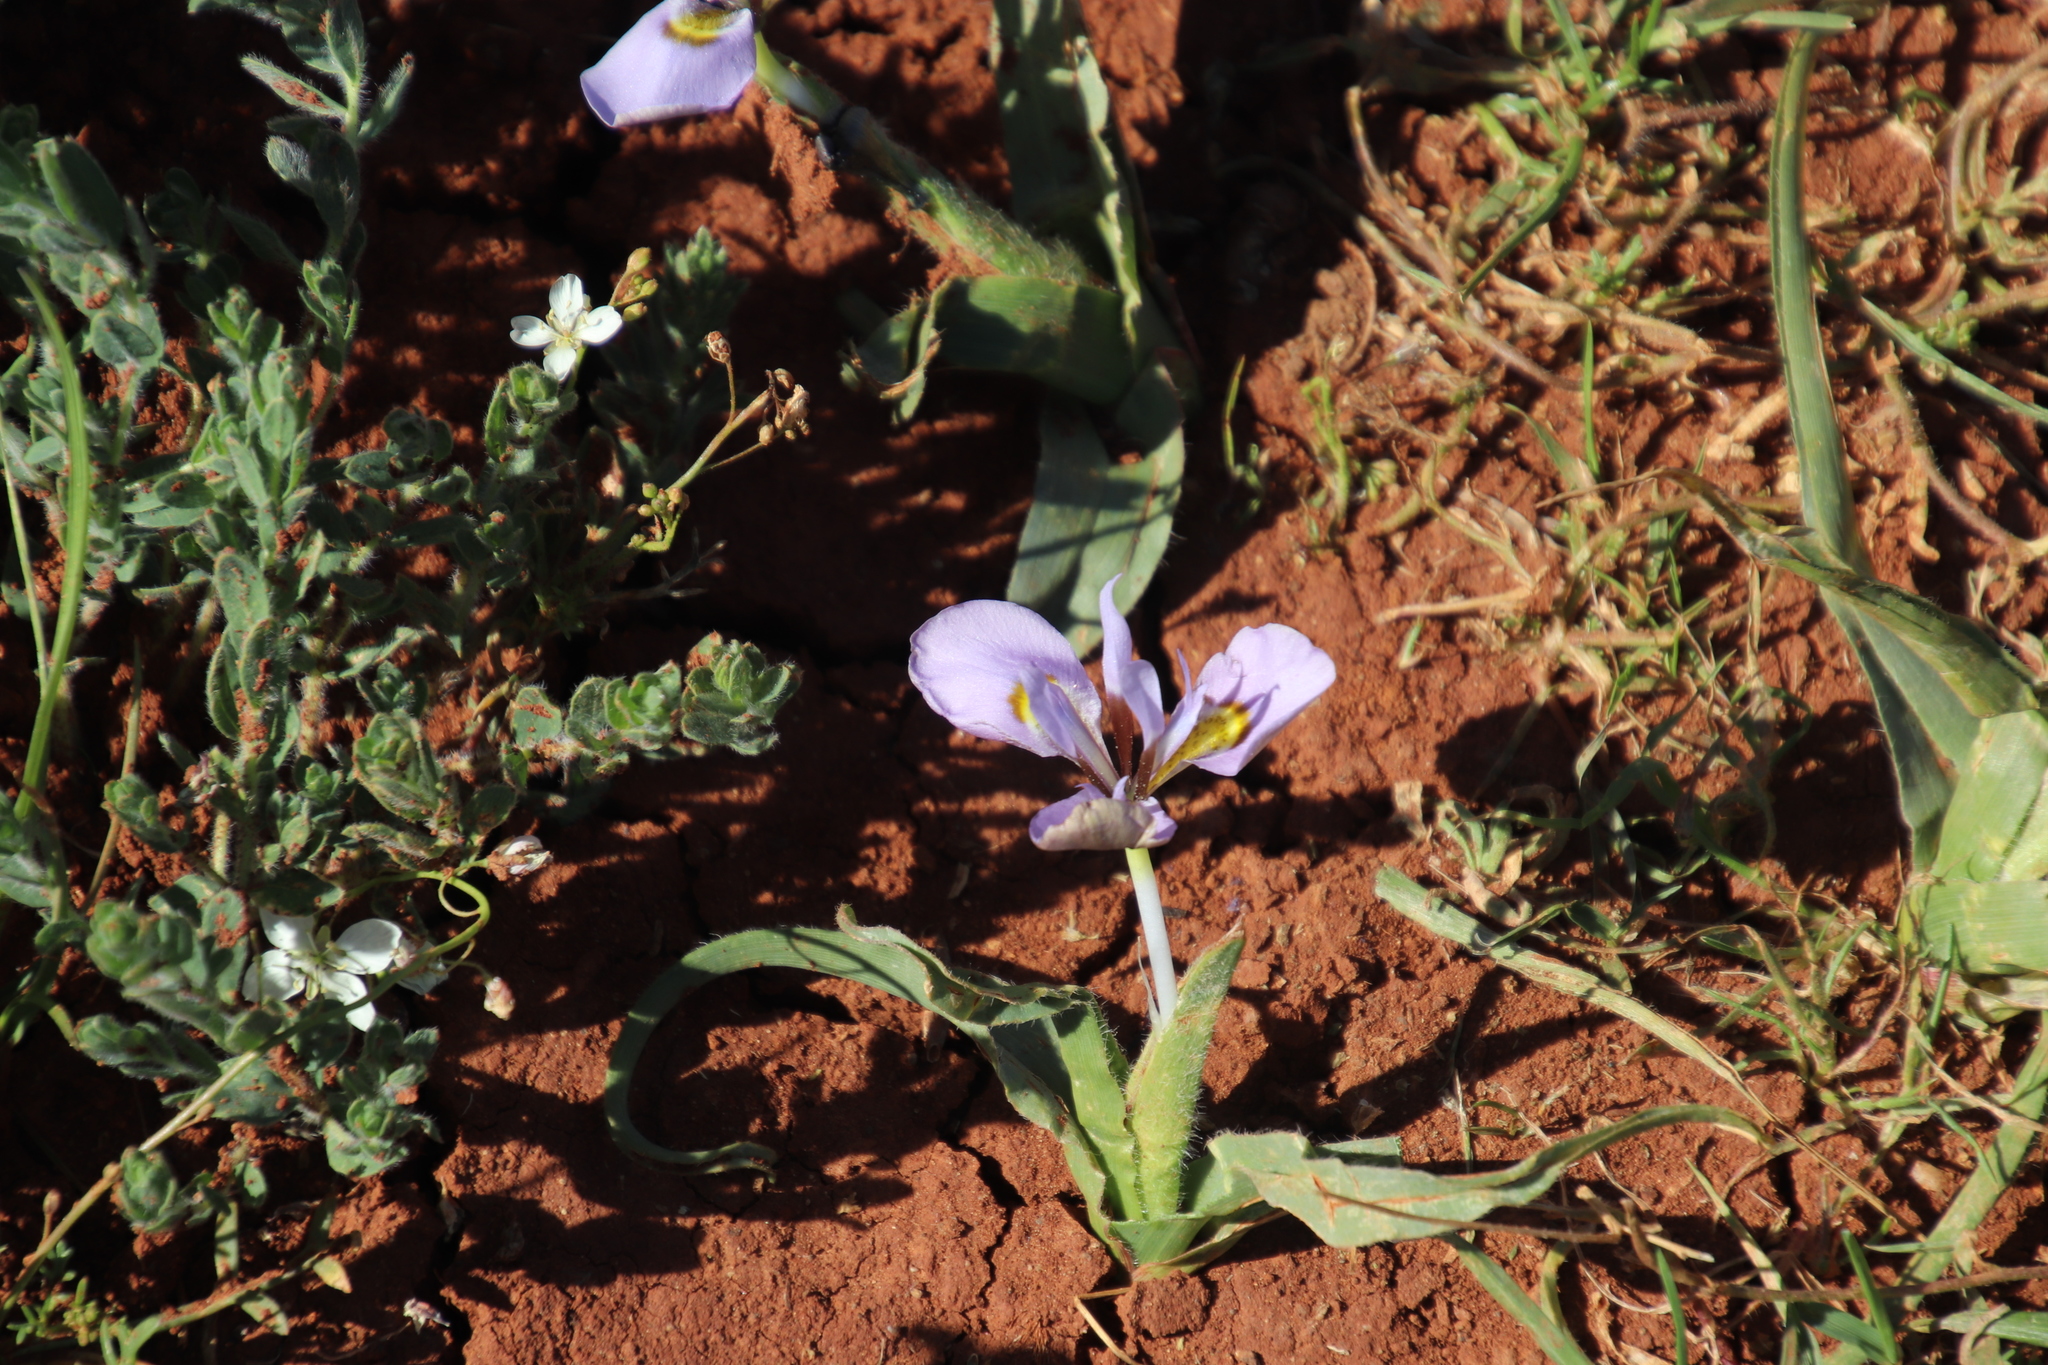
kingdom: Plantae
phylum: Tracheophyta
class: Liliopsida
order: Asparagales
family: Iridaceae
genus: Moraea
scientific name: Moraea ciliata
